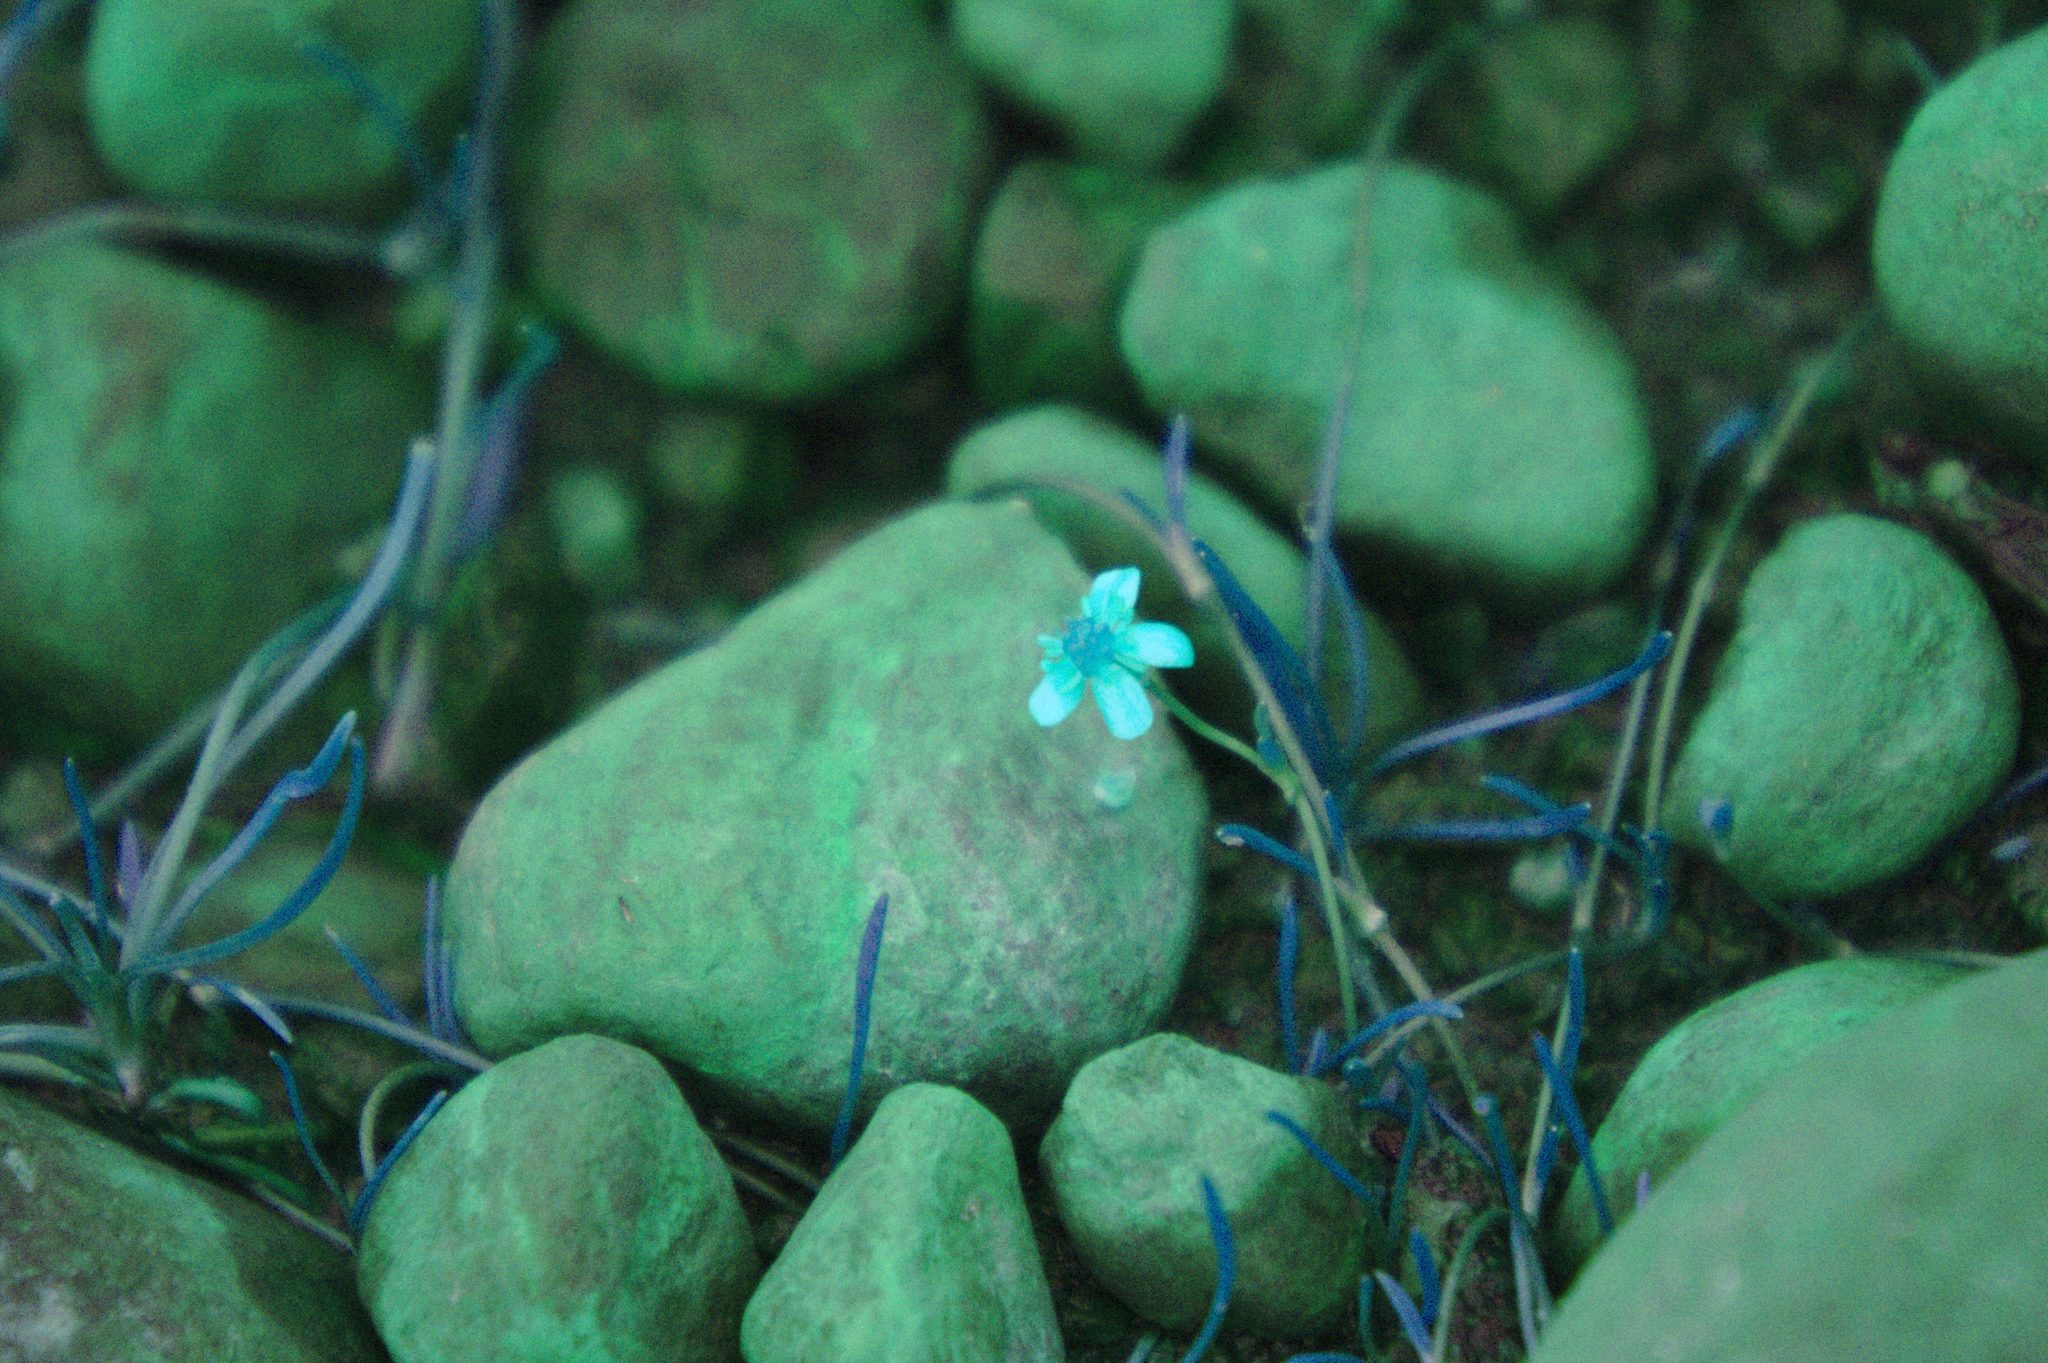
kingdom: Plantae
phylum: Tracheophyta
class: Magnoliopsida
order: Ranunculales
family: Ranunculaceae
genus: Ranunculus
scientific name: Ranunculus reptans
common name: Creeping spearwort
